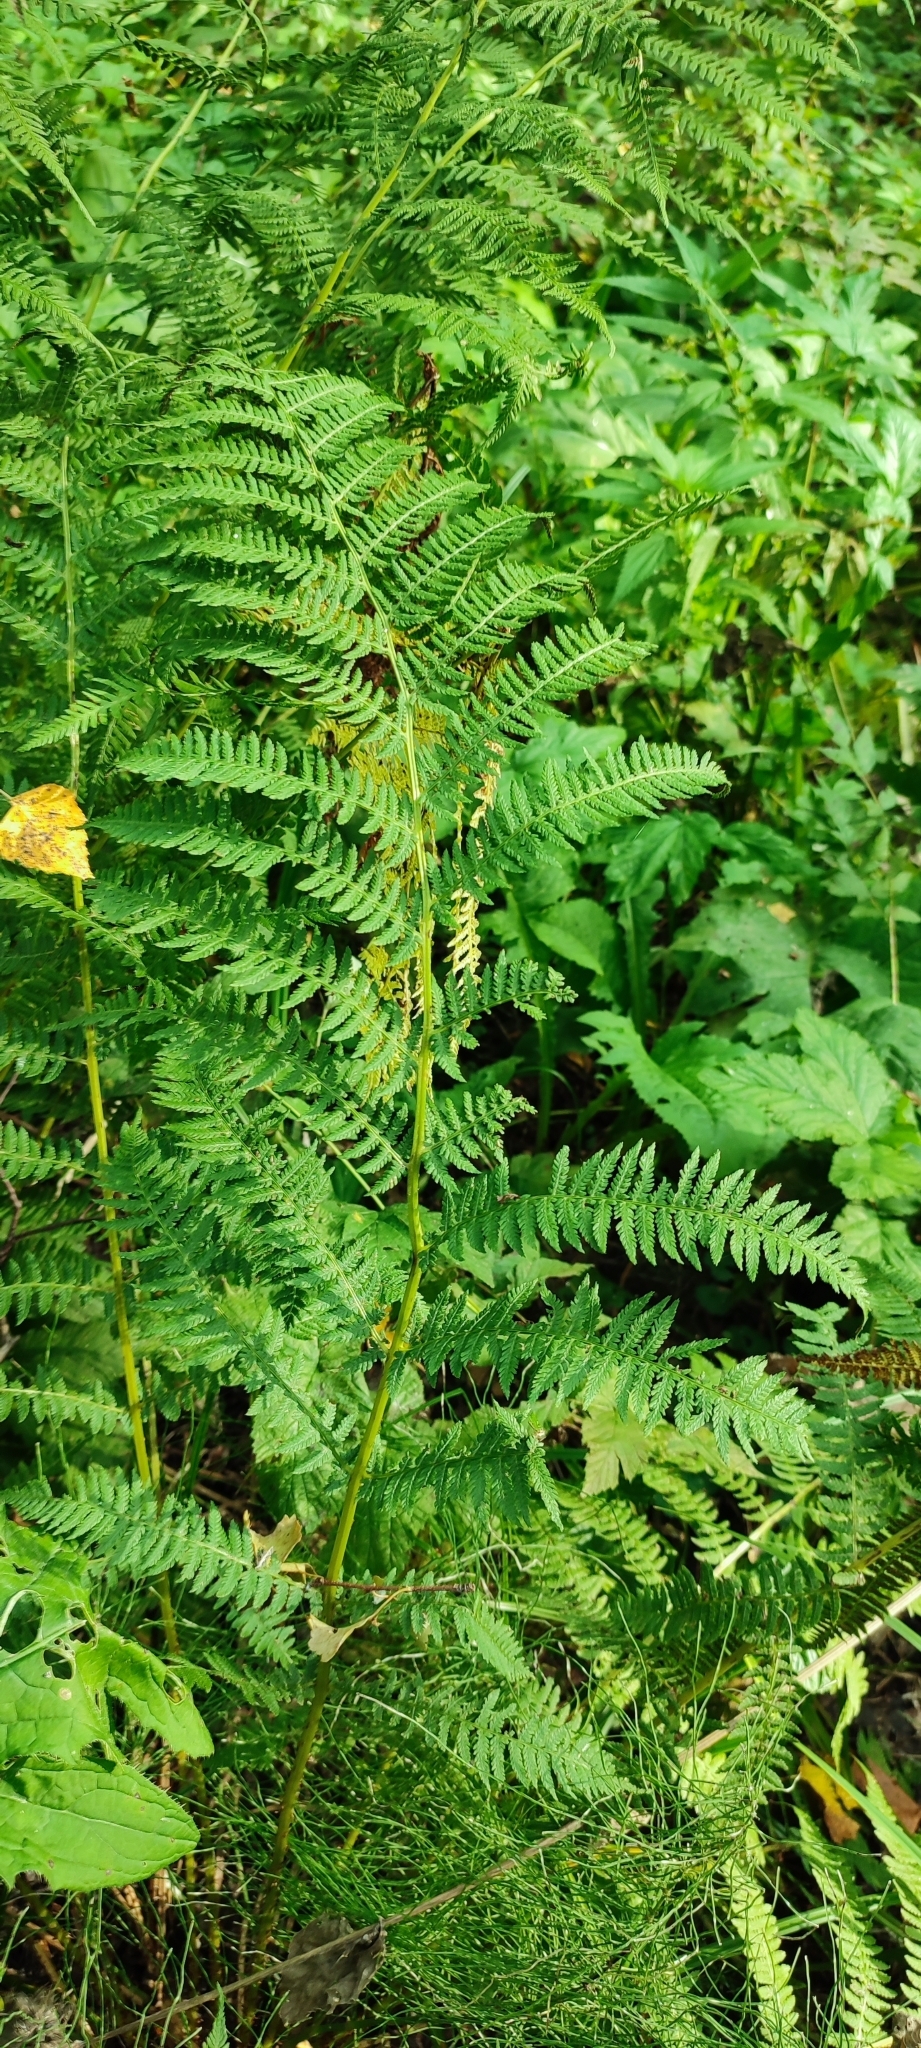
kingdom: Plantae
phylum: Tracheophyta
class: Polypodiopsida
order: Polypodiales
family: Athyriaceae
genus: Athyrium
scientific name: Athyrium filix-femina
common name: Lady fern
